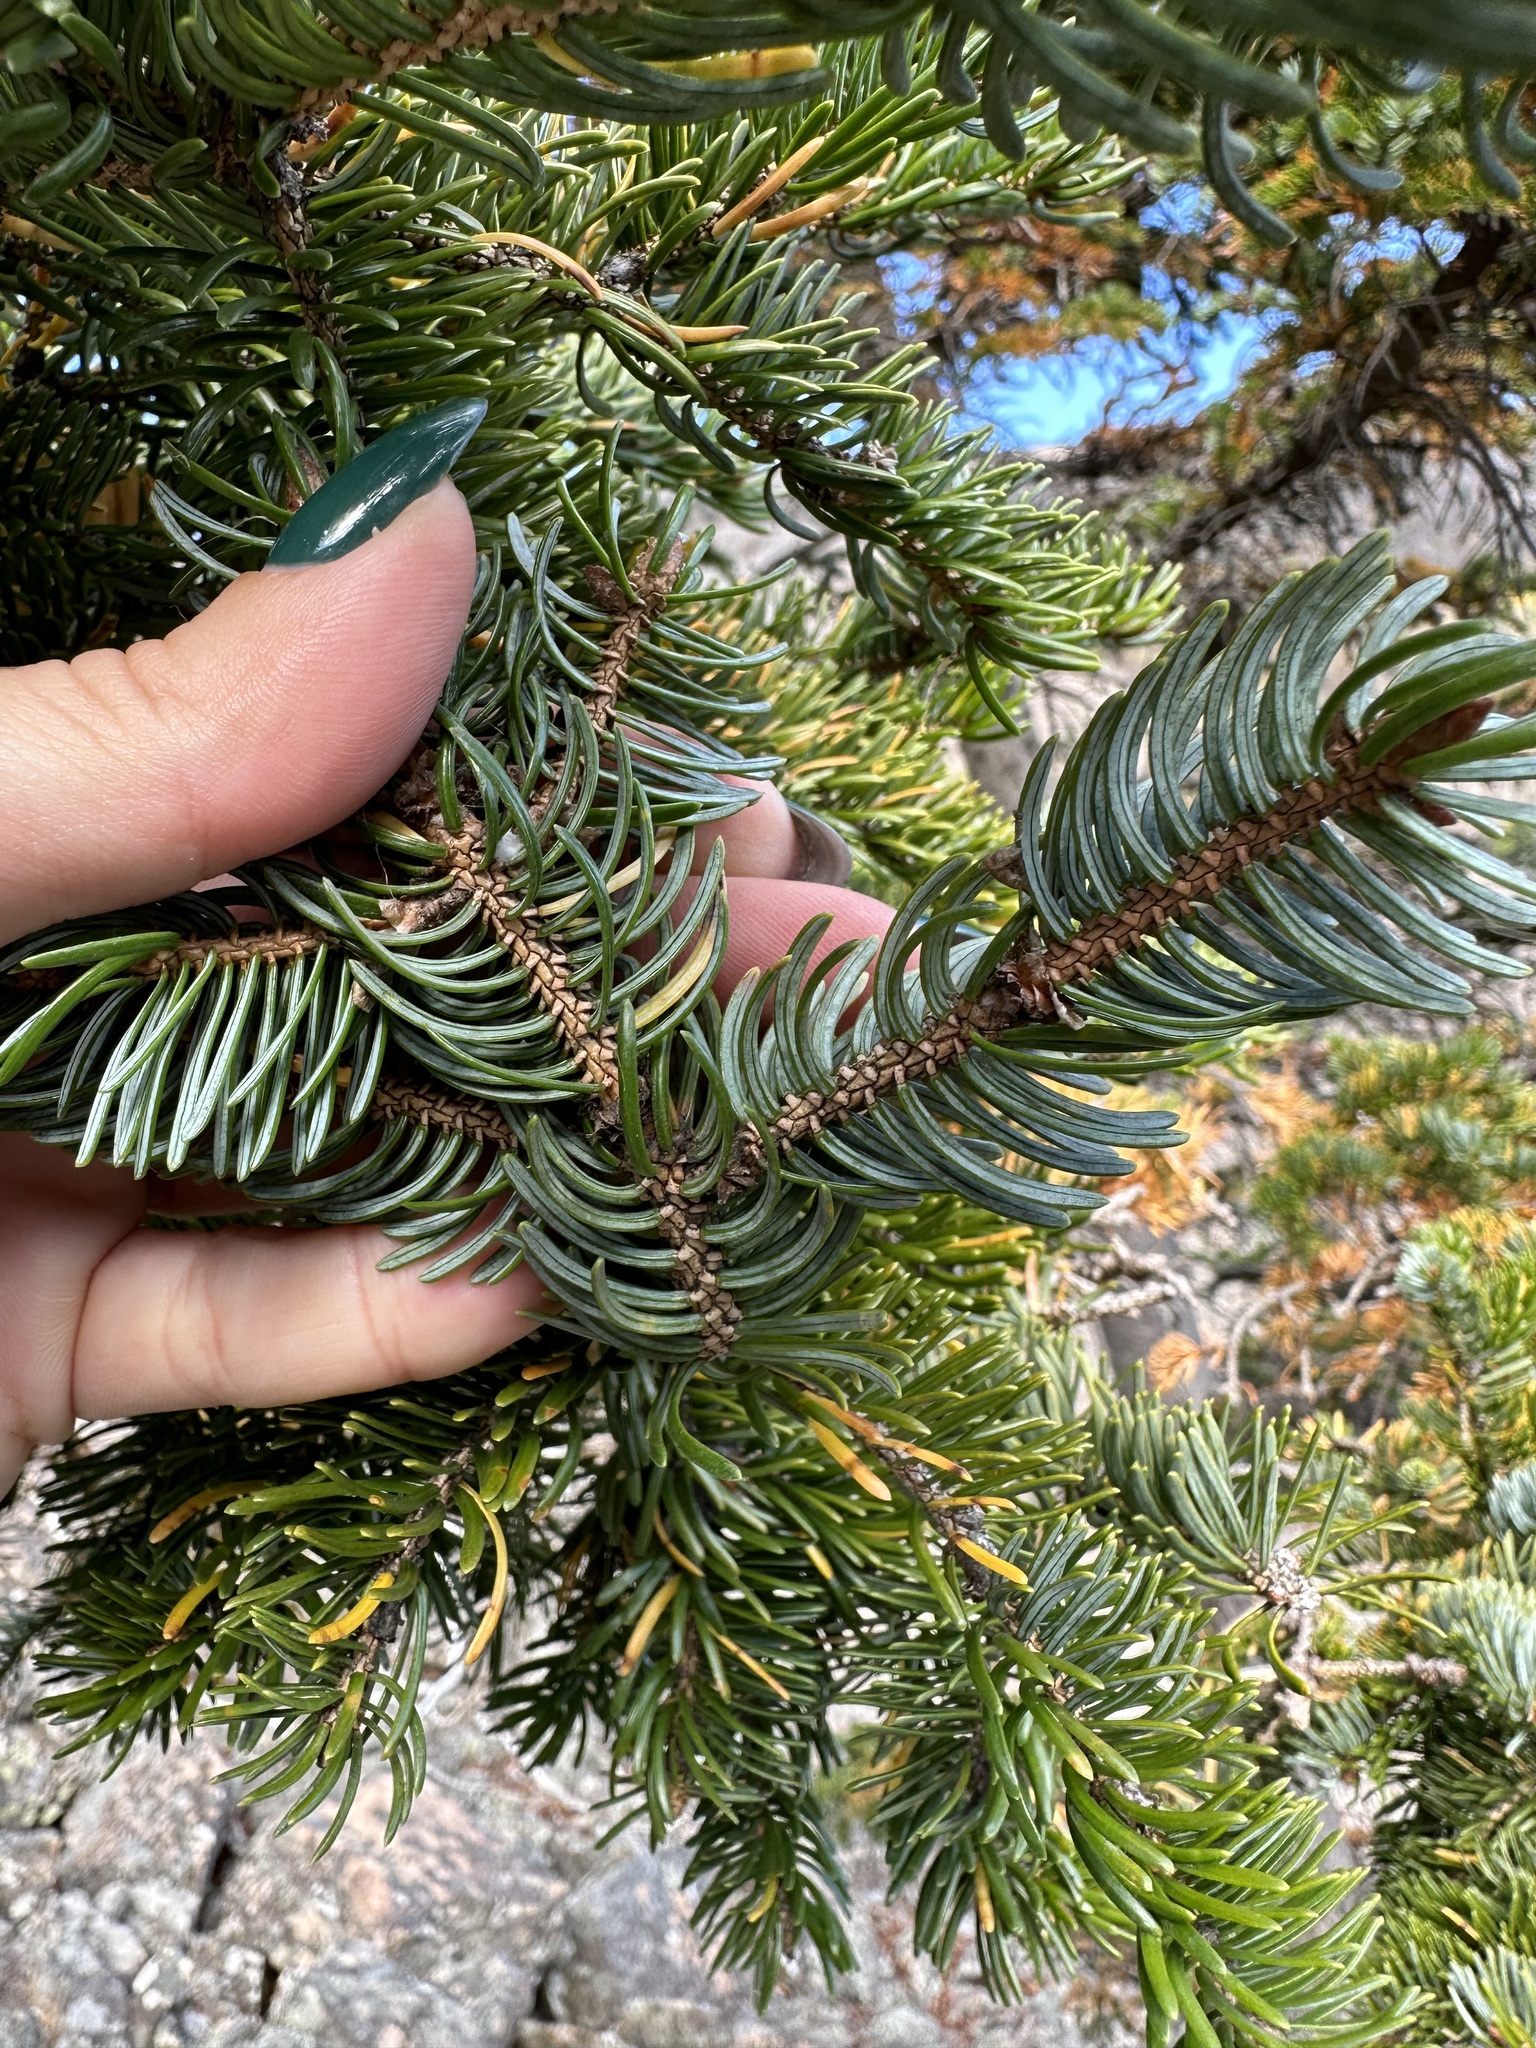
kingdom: Plantae
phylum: Tracheophyta
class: Pinopsida
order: Pinales
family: Pinaceae
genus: Picea
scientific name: Picea jezoensis
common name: Yeddo spruce
